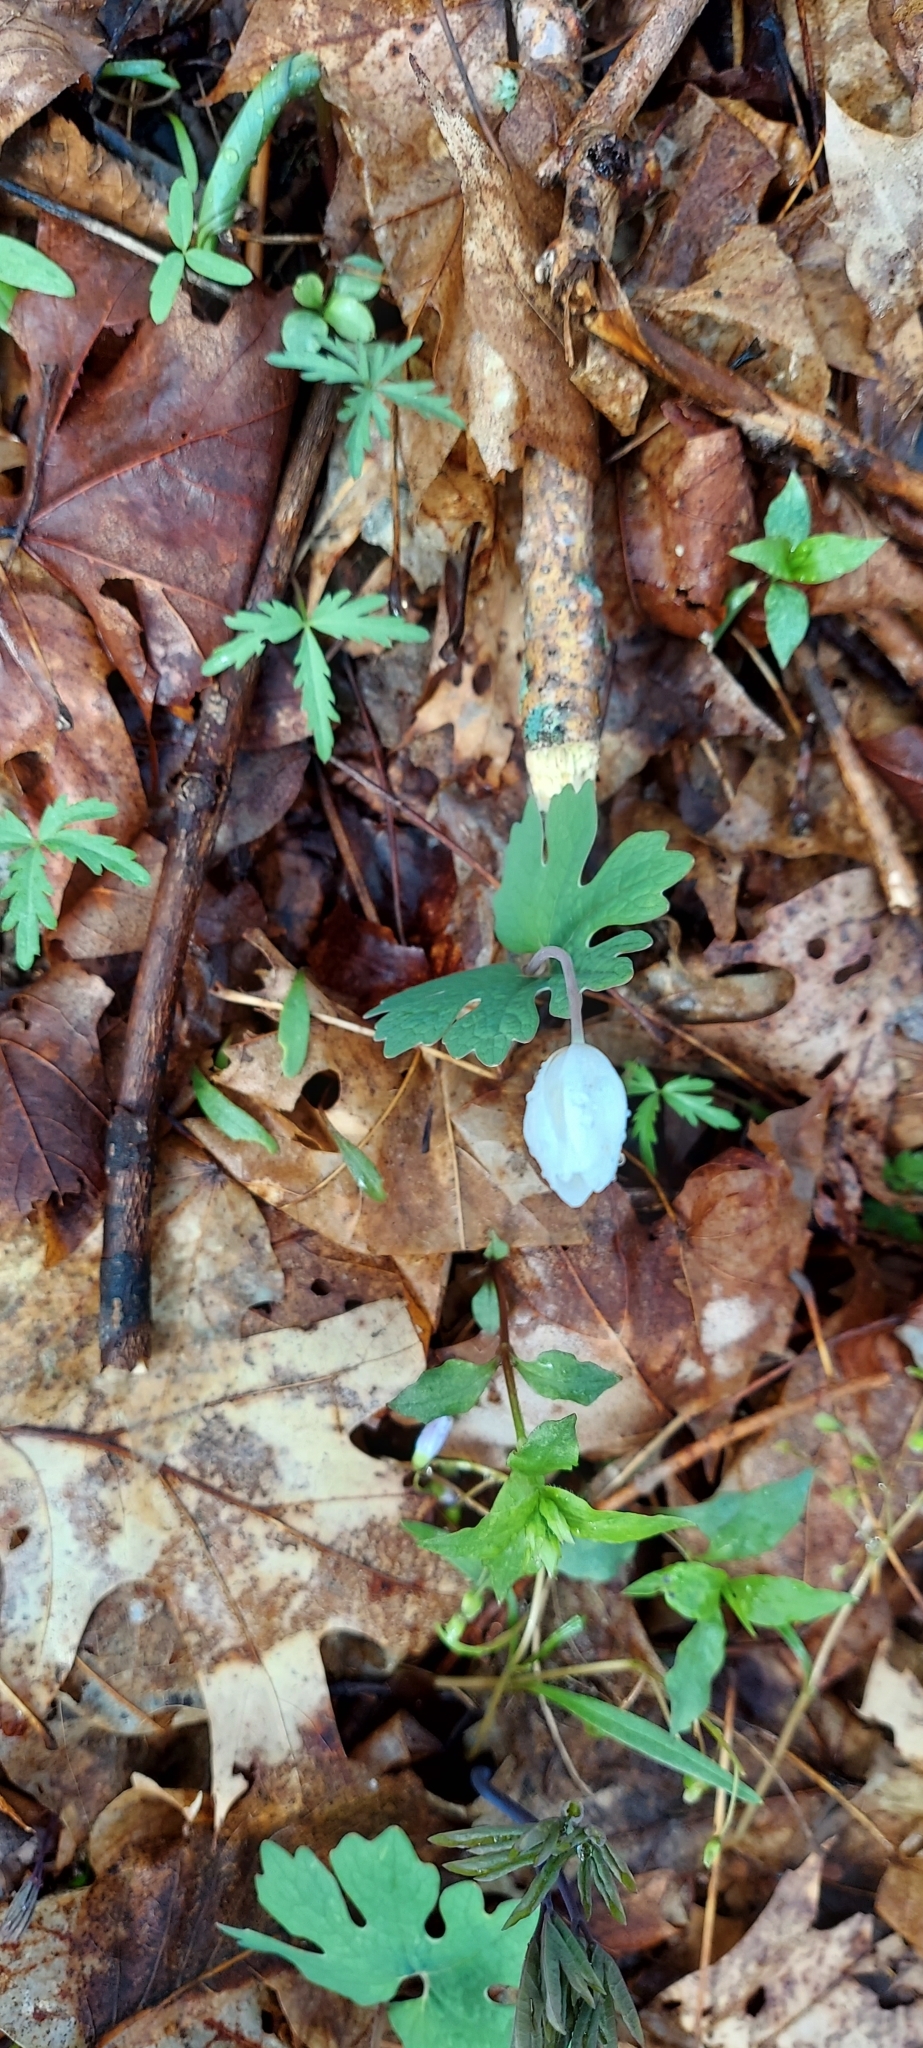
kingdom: Plantae
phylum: Tracheophyta
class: Magnoliopsida
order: Ranunculales
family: Papaveraceae
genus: Sanguinaria
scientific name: Sanguinaria canadensis
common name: Bloodroot
